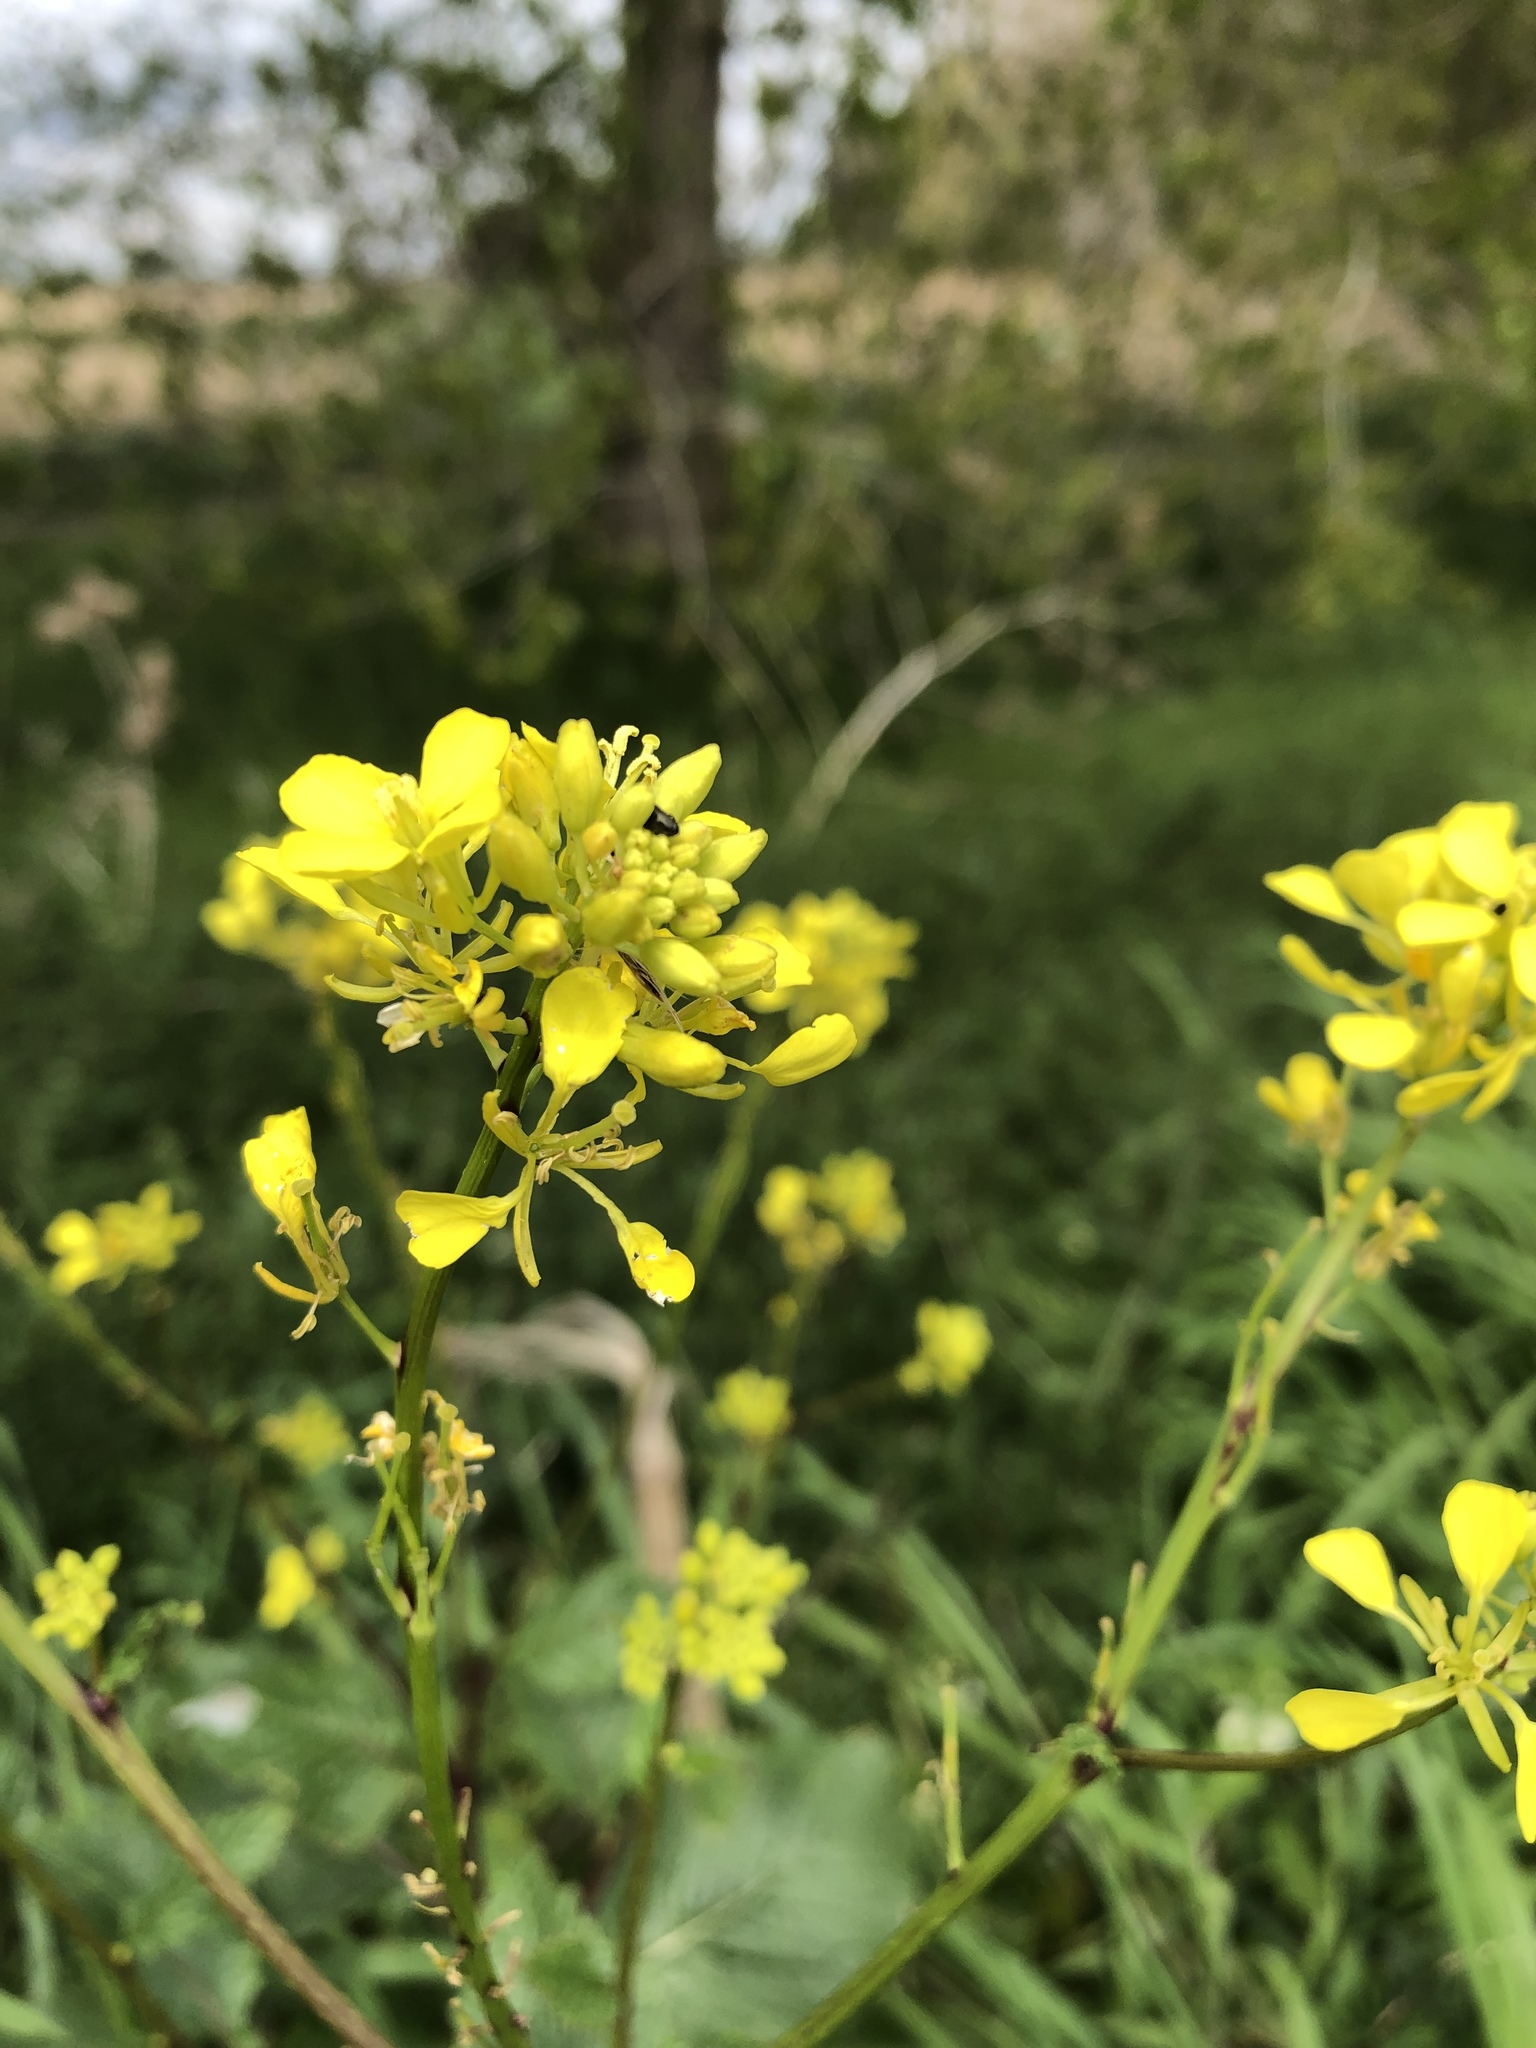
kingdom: Plantae
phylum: Tracheophyta
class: Magnoliopsida
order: Brassicales
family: Brassicaceae
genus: Sinapis
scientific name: Sinapis arvensis
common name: Charlock
